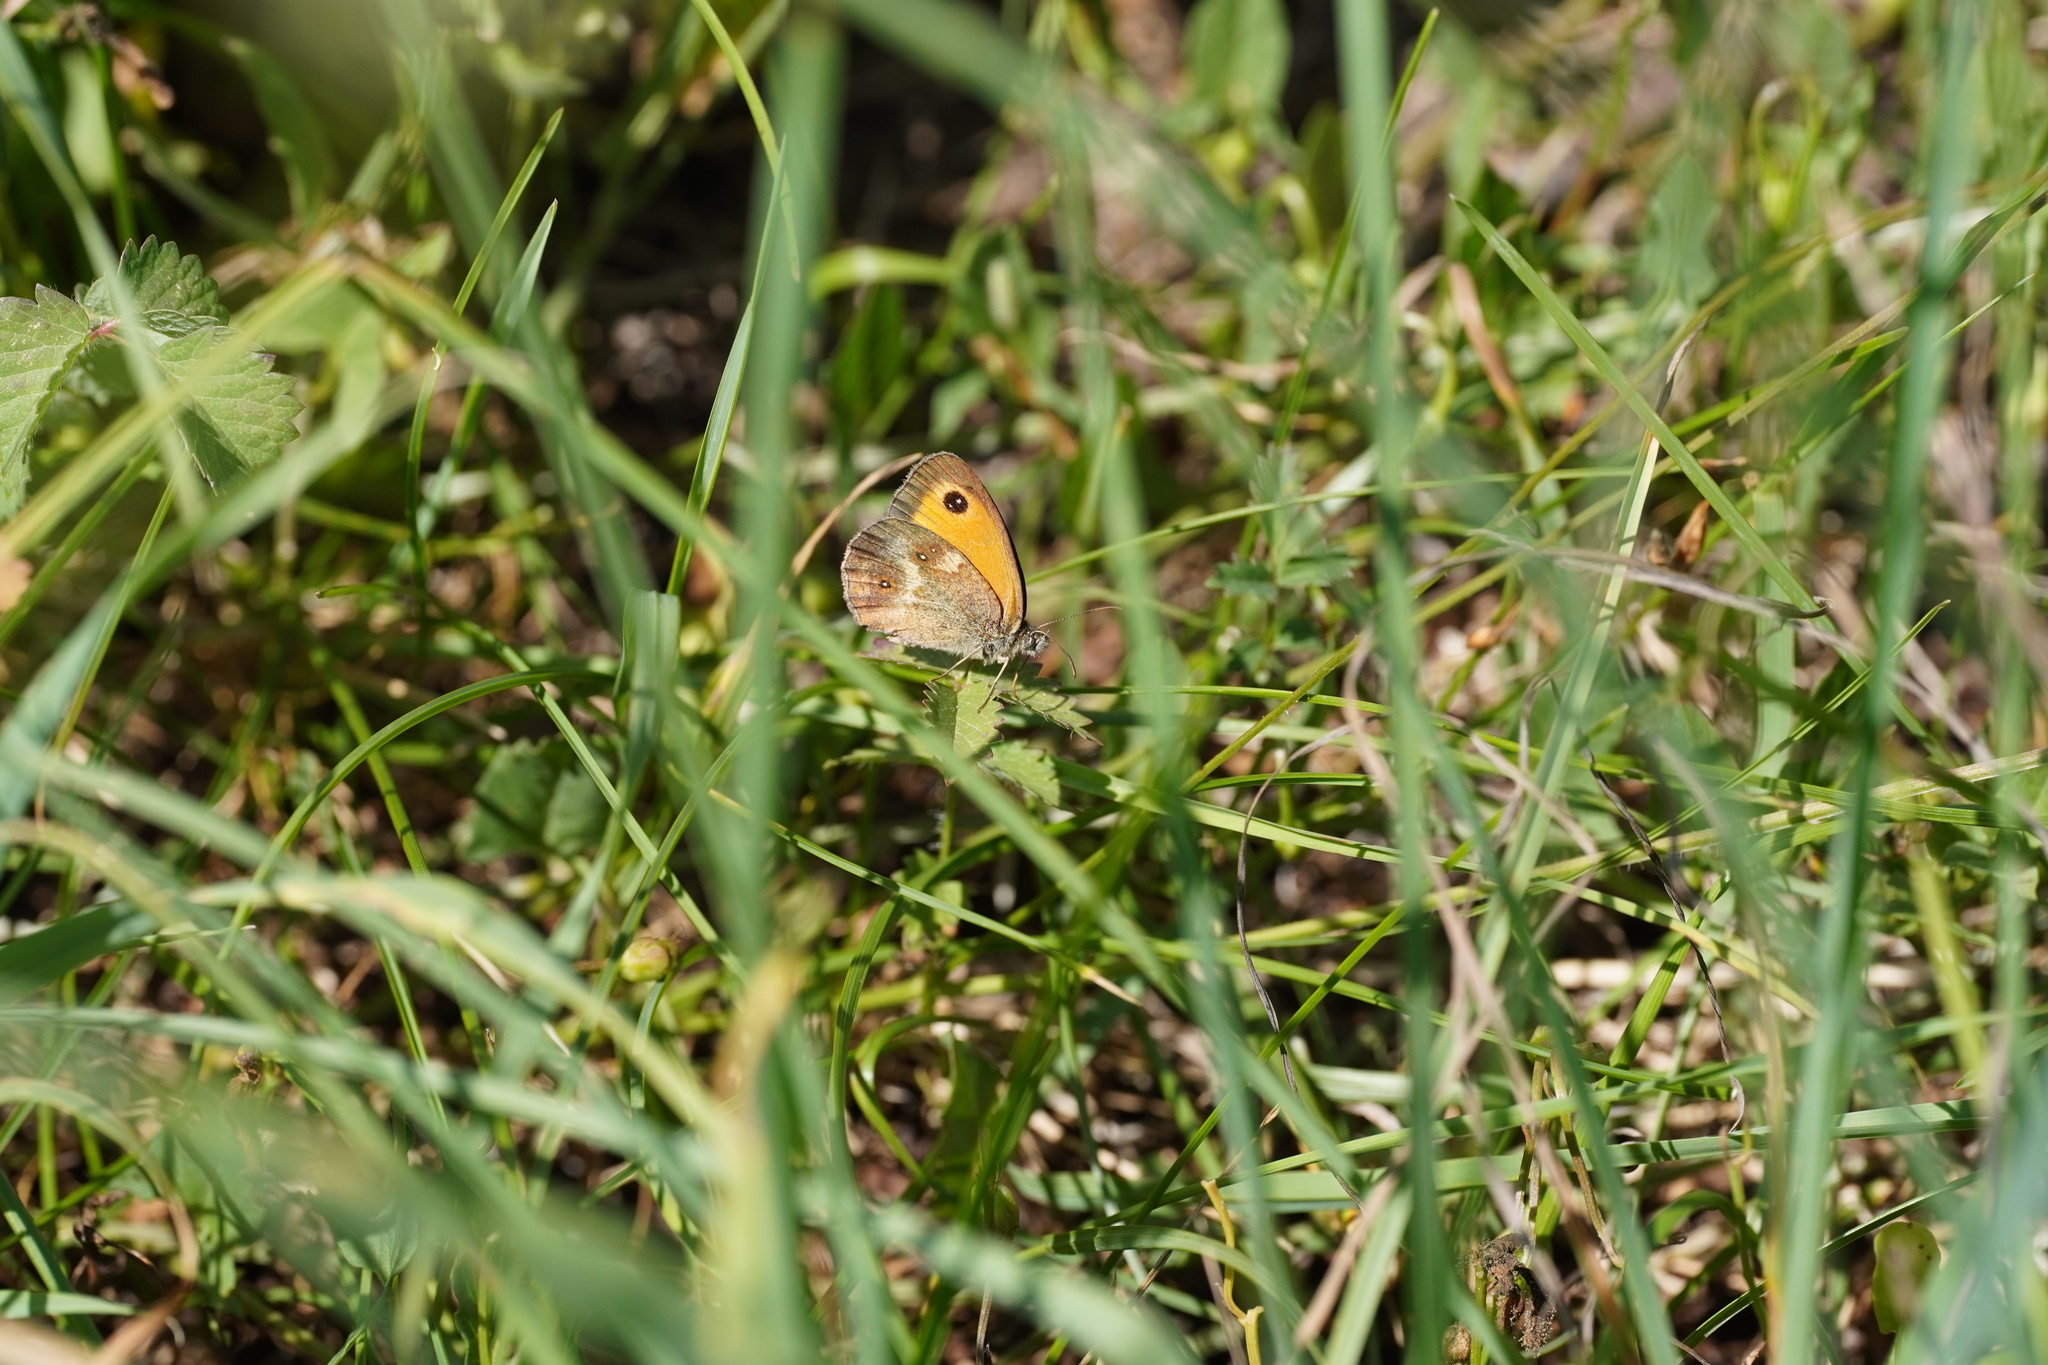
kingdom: Animalia
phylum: Arthropoda
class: Insecta
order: Lepidoptera
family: Nymphalidae
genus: Pyronia
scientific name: Pyronia tithonus
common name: Gatekeeper
